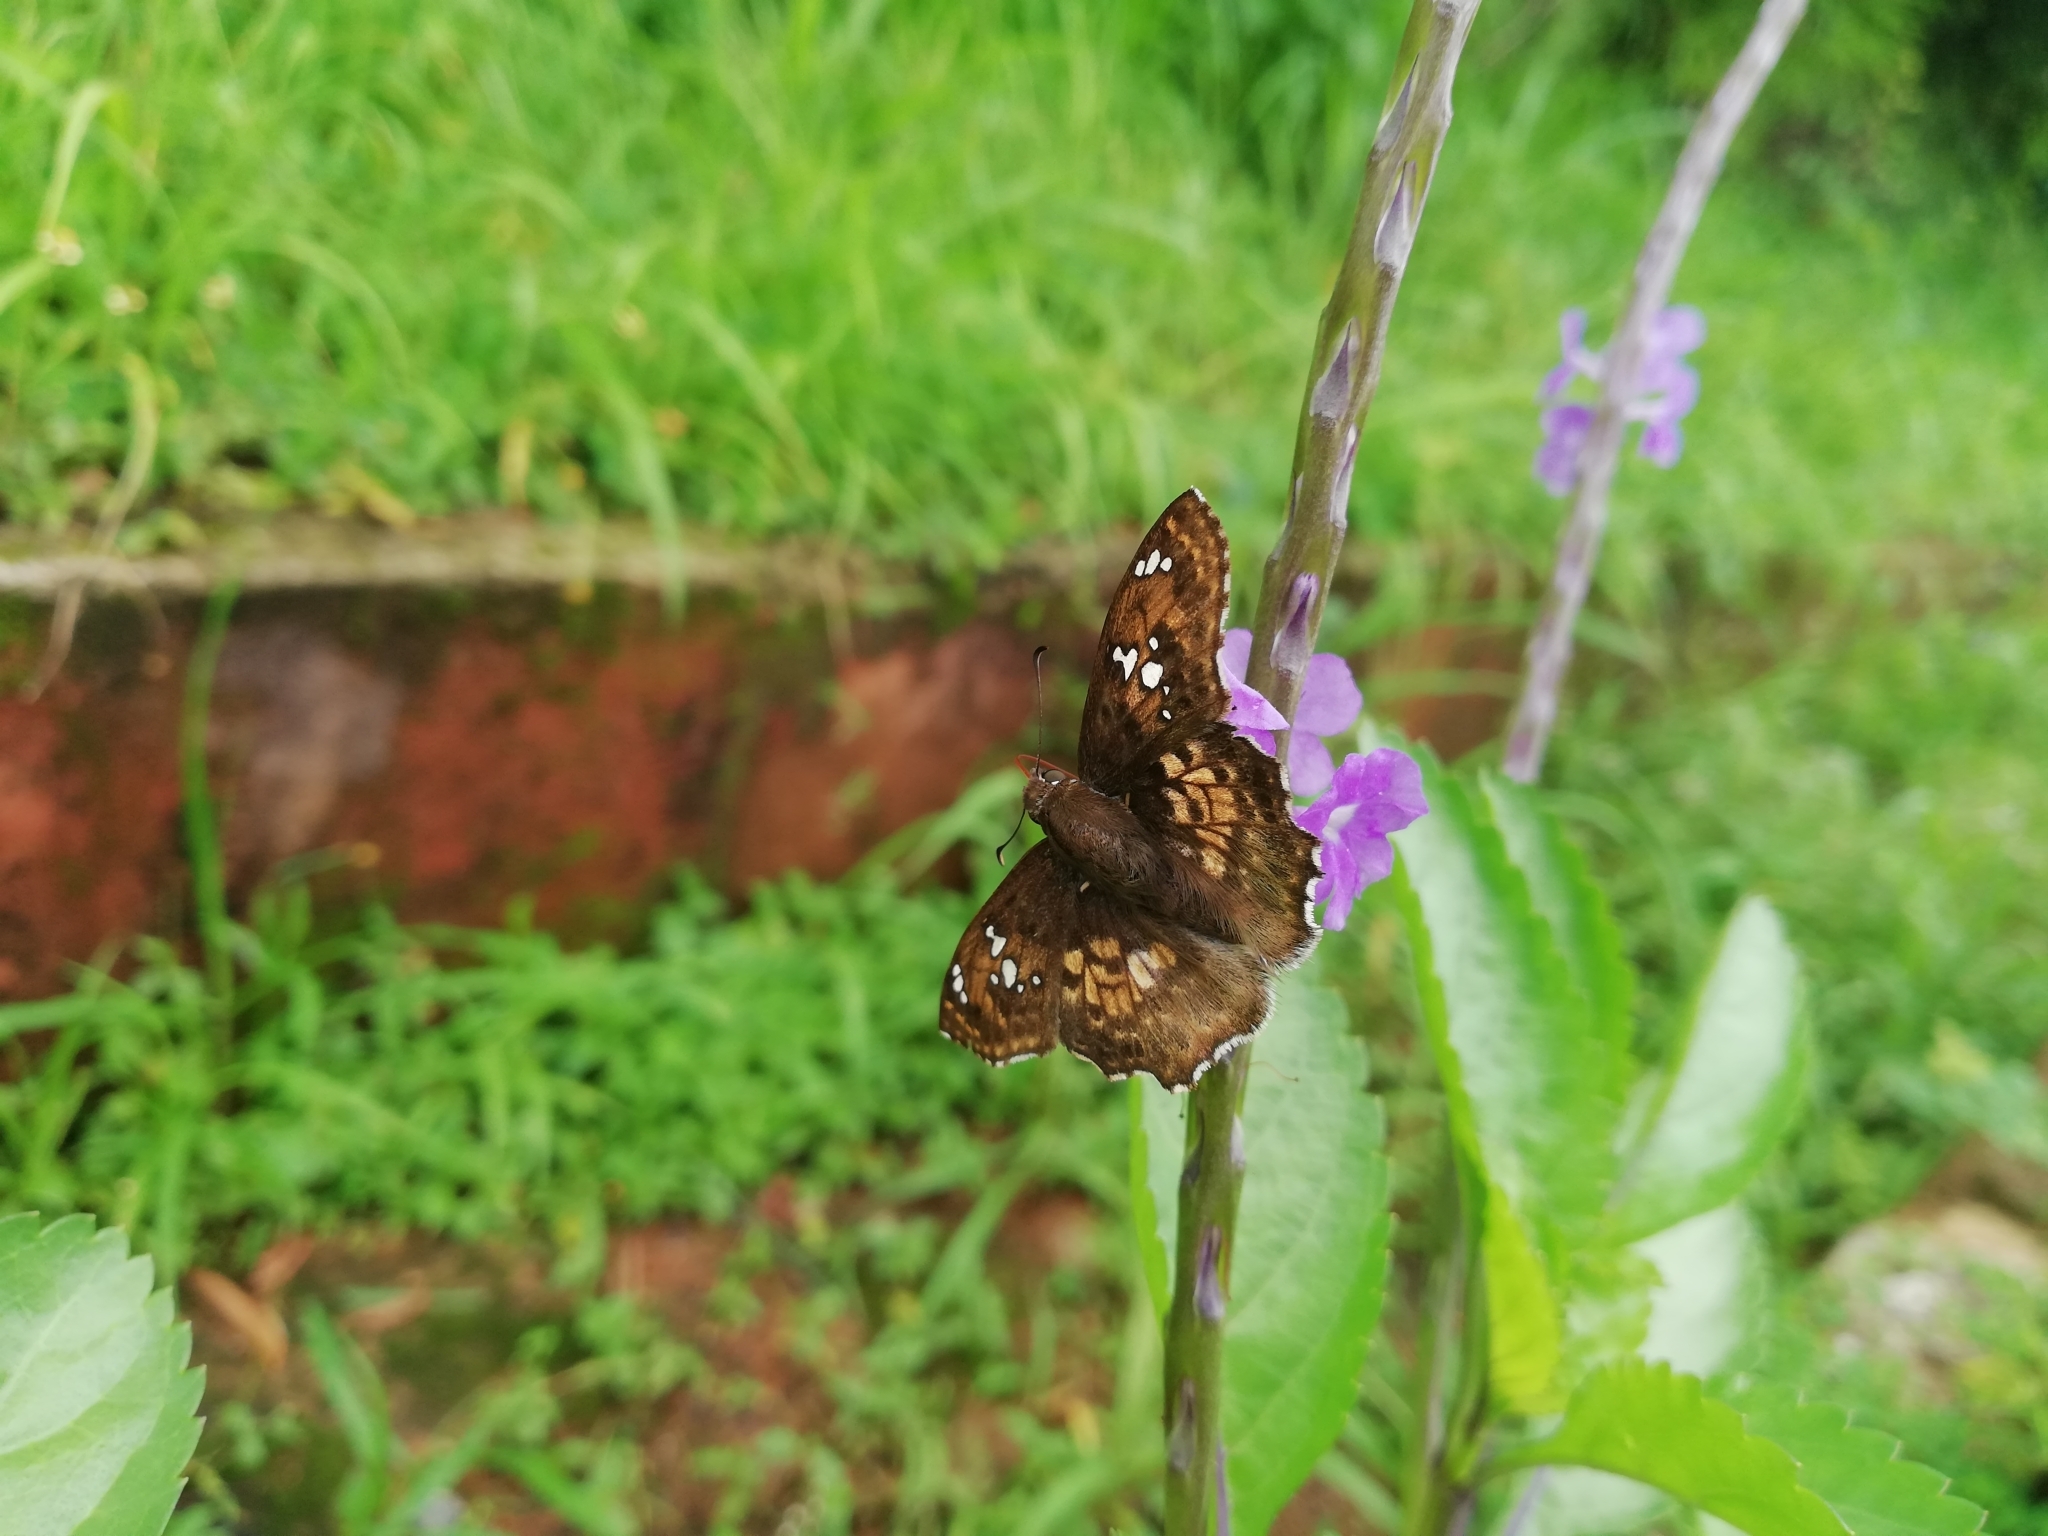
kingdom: Animalia
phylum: Arthropoda
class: Insecta
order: Lepidoptera
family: Hesperiidae
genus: Caprona
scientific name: Caprona ransonnettii
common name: Golden angle
